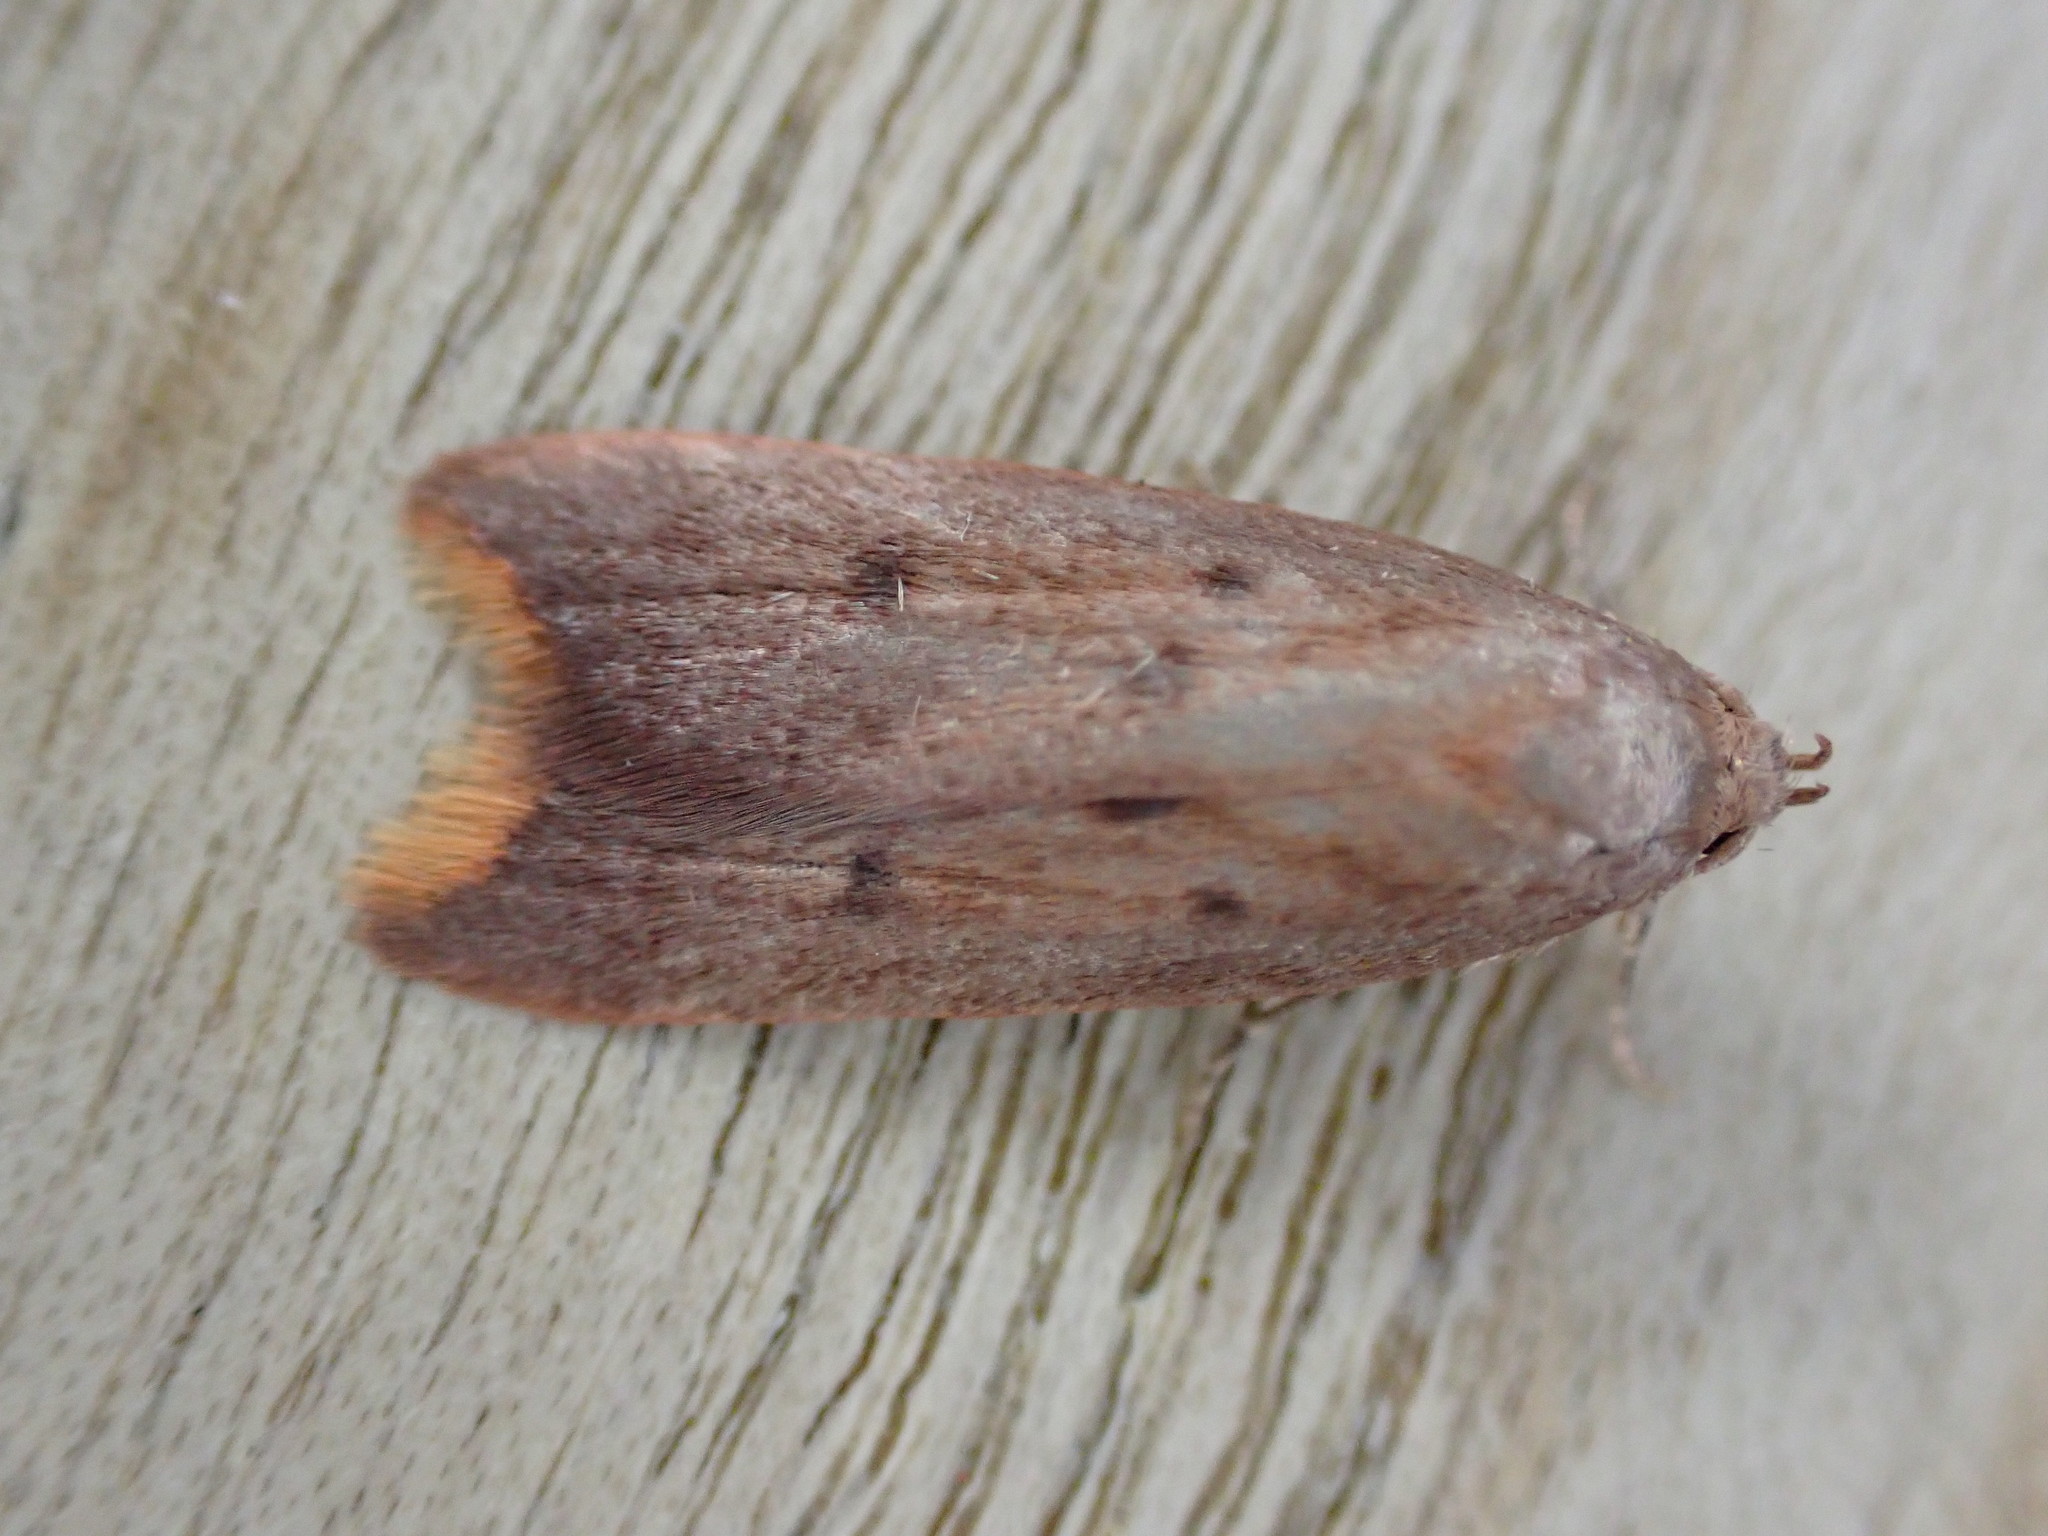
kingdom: Animalia
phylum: Arthropoda
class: Insecta
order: Lepidoptera
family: Oecophoridae
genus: Tachystola
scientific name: Tachystola acroxantha
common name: Ruddy streak
